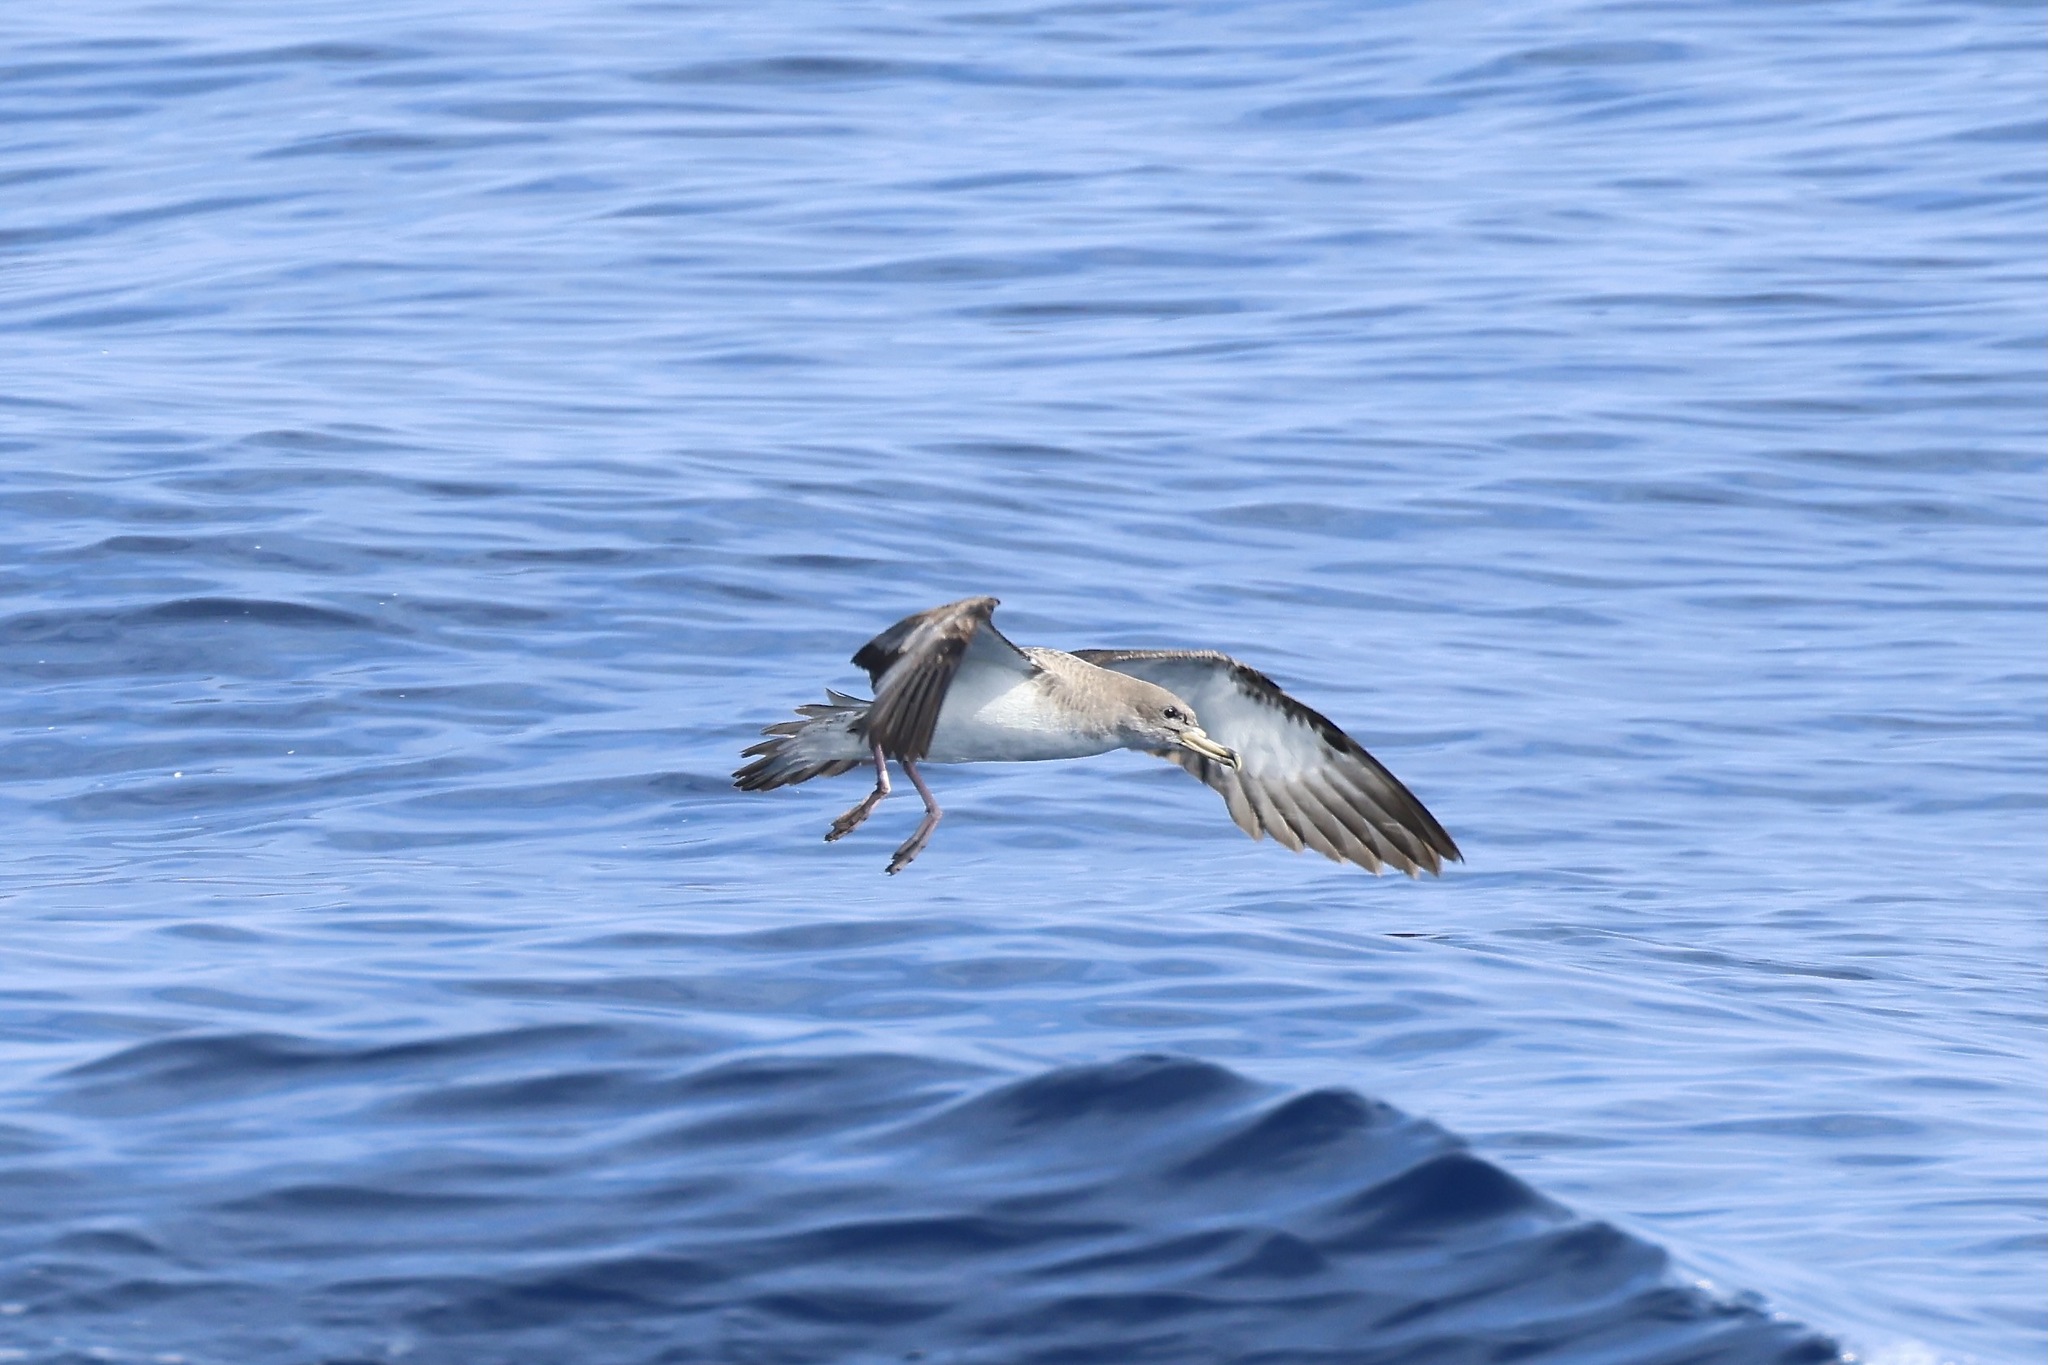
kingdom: Animalia
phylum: Chordata
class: Aves
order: Procellariiformes
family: Procellariidae
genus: Calonectris
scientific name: Calonectris diomedea
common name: Cory's shearwater
